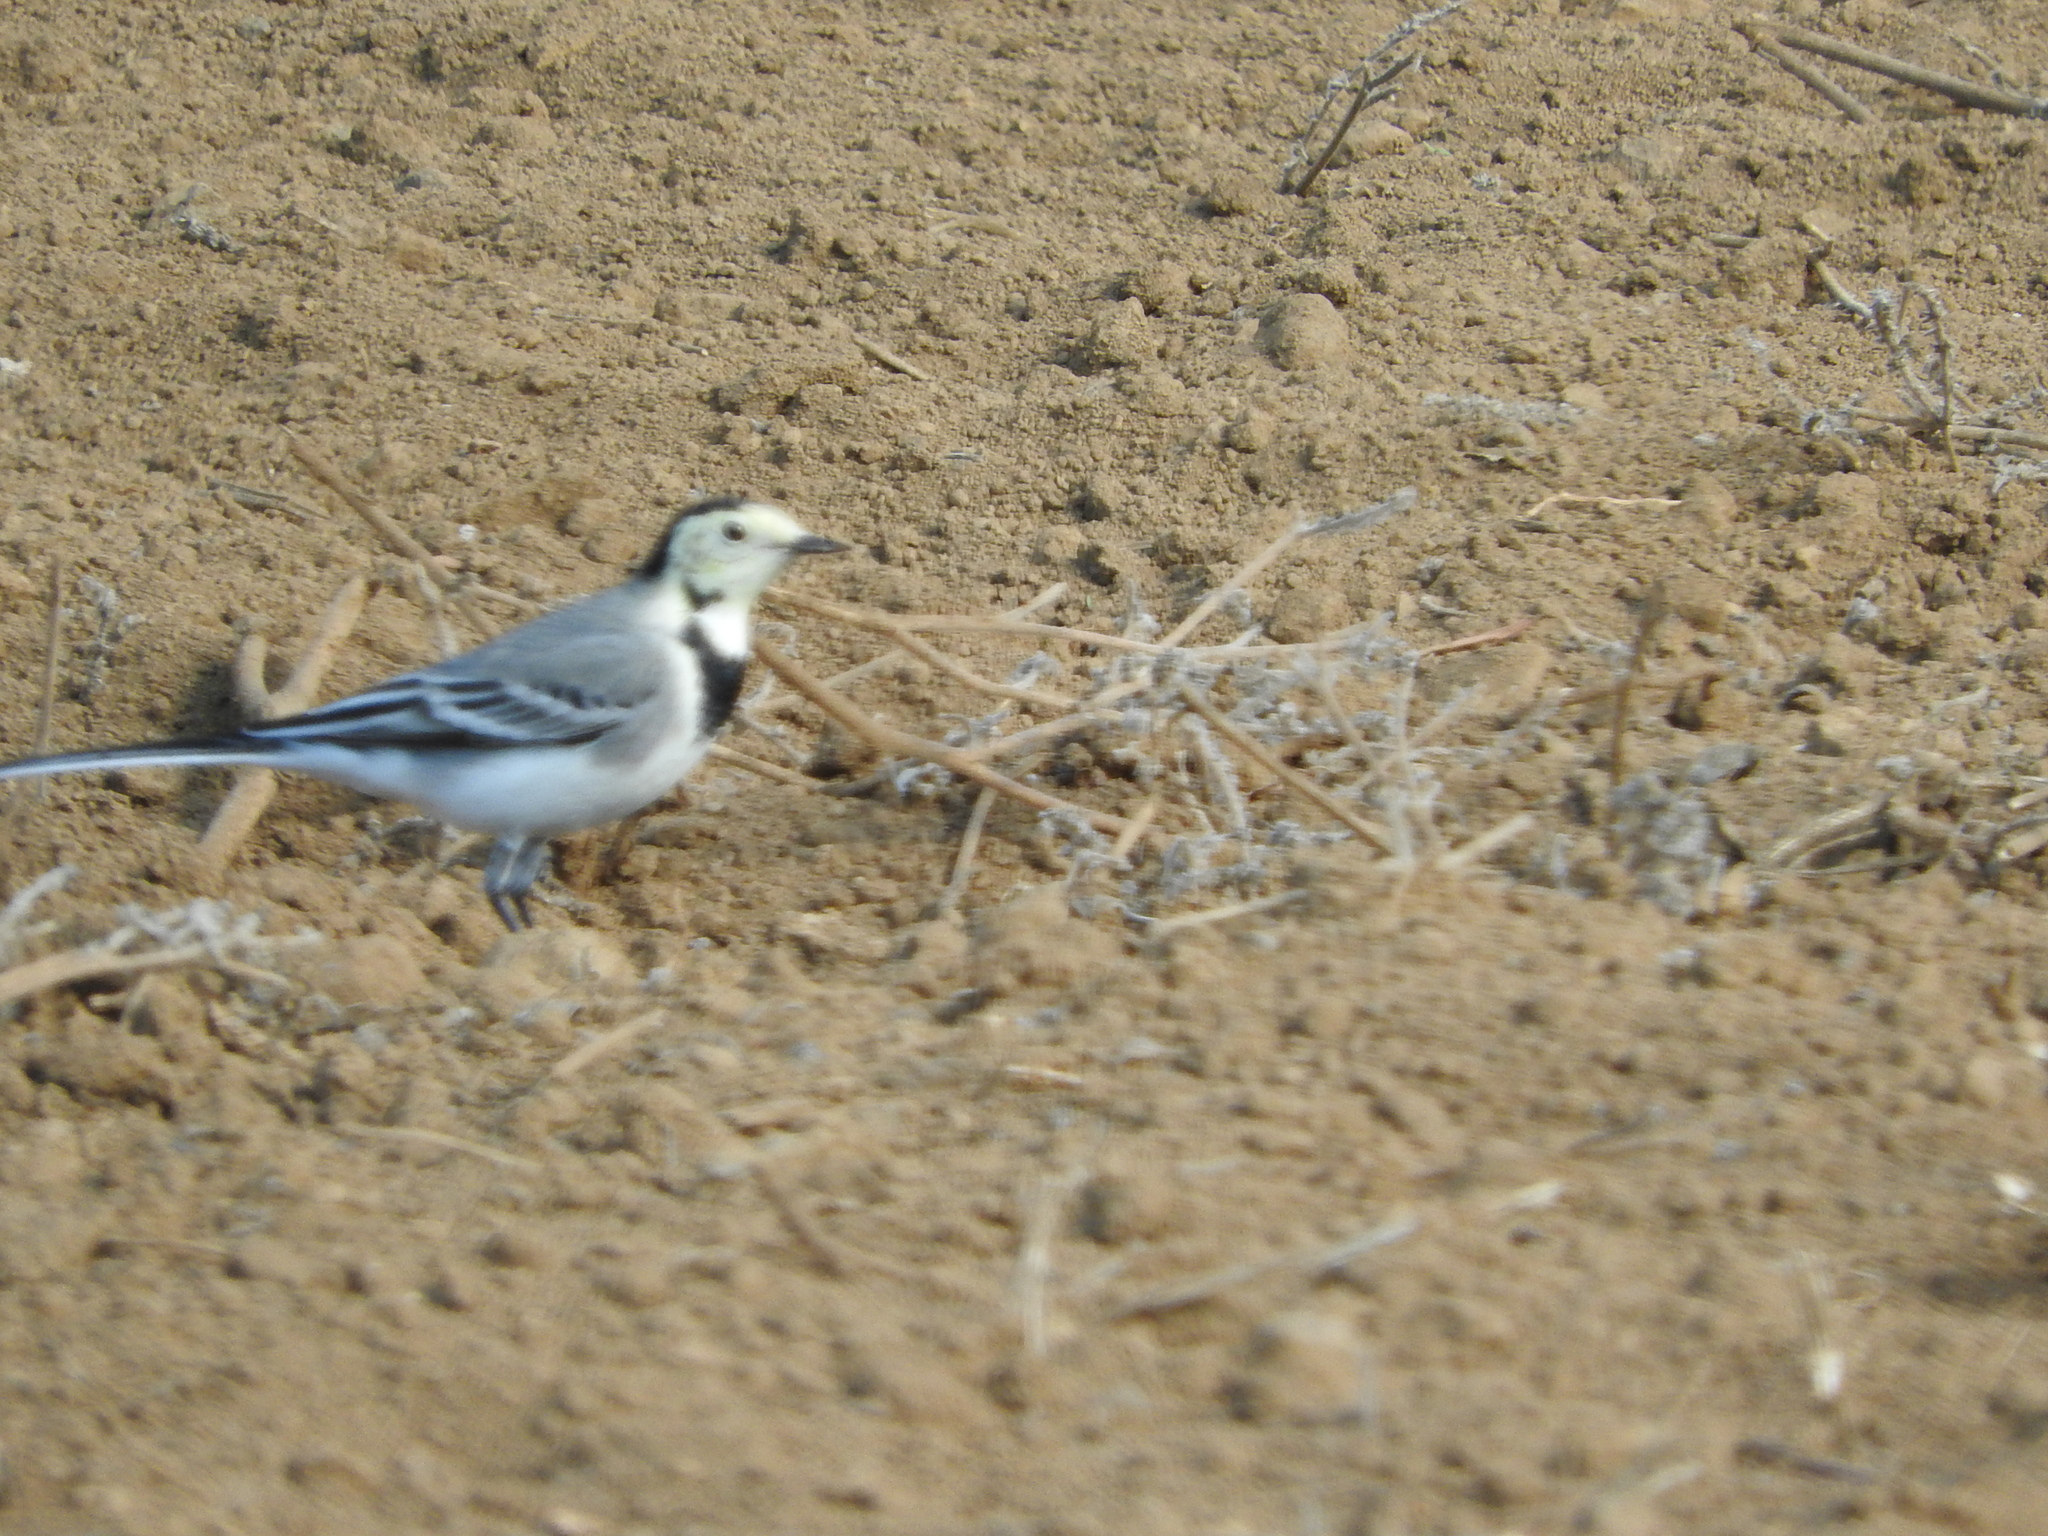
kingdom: Animalia
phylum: Chordata
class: Aves
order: Passeriformes
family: Motacillidae
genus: Motacilla
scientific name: Motacilla alba
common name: White wagtail
